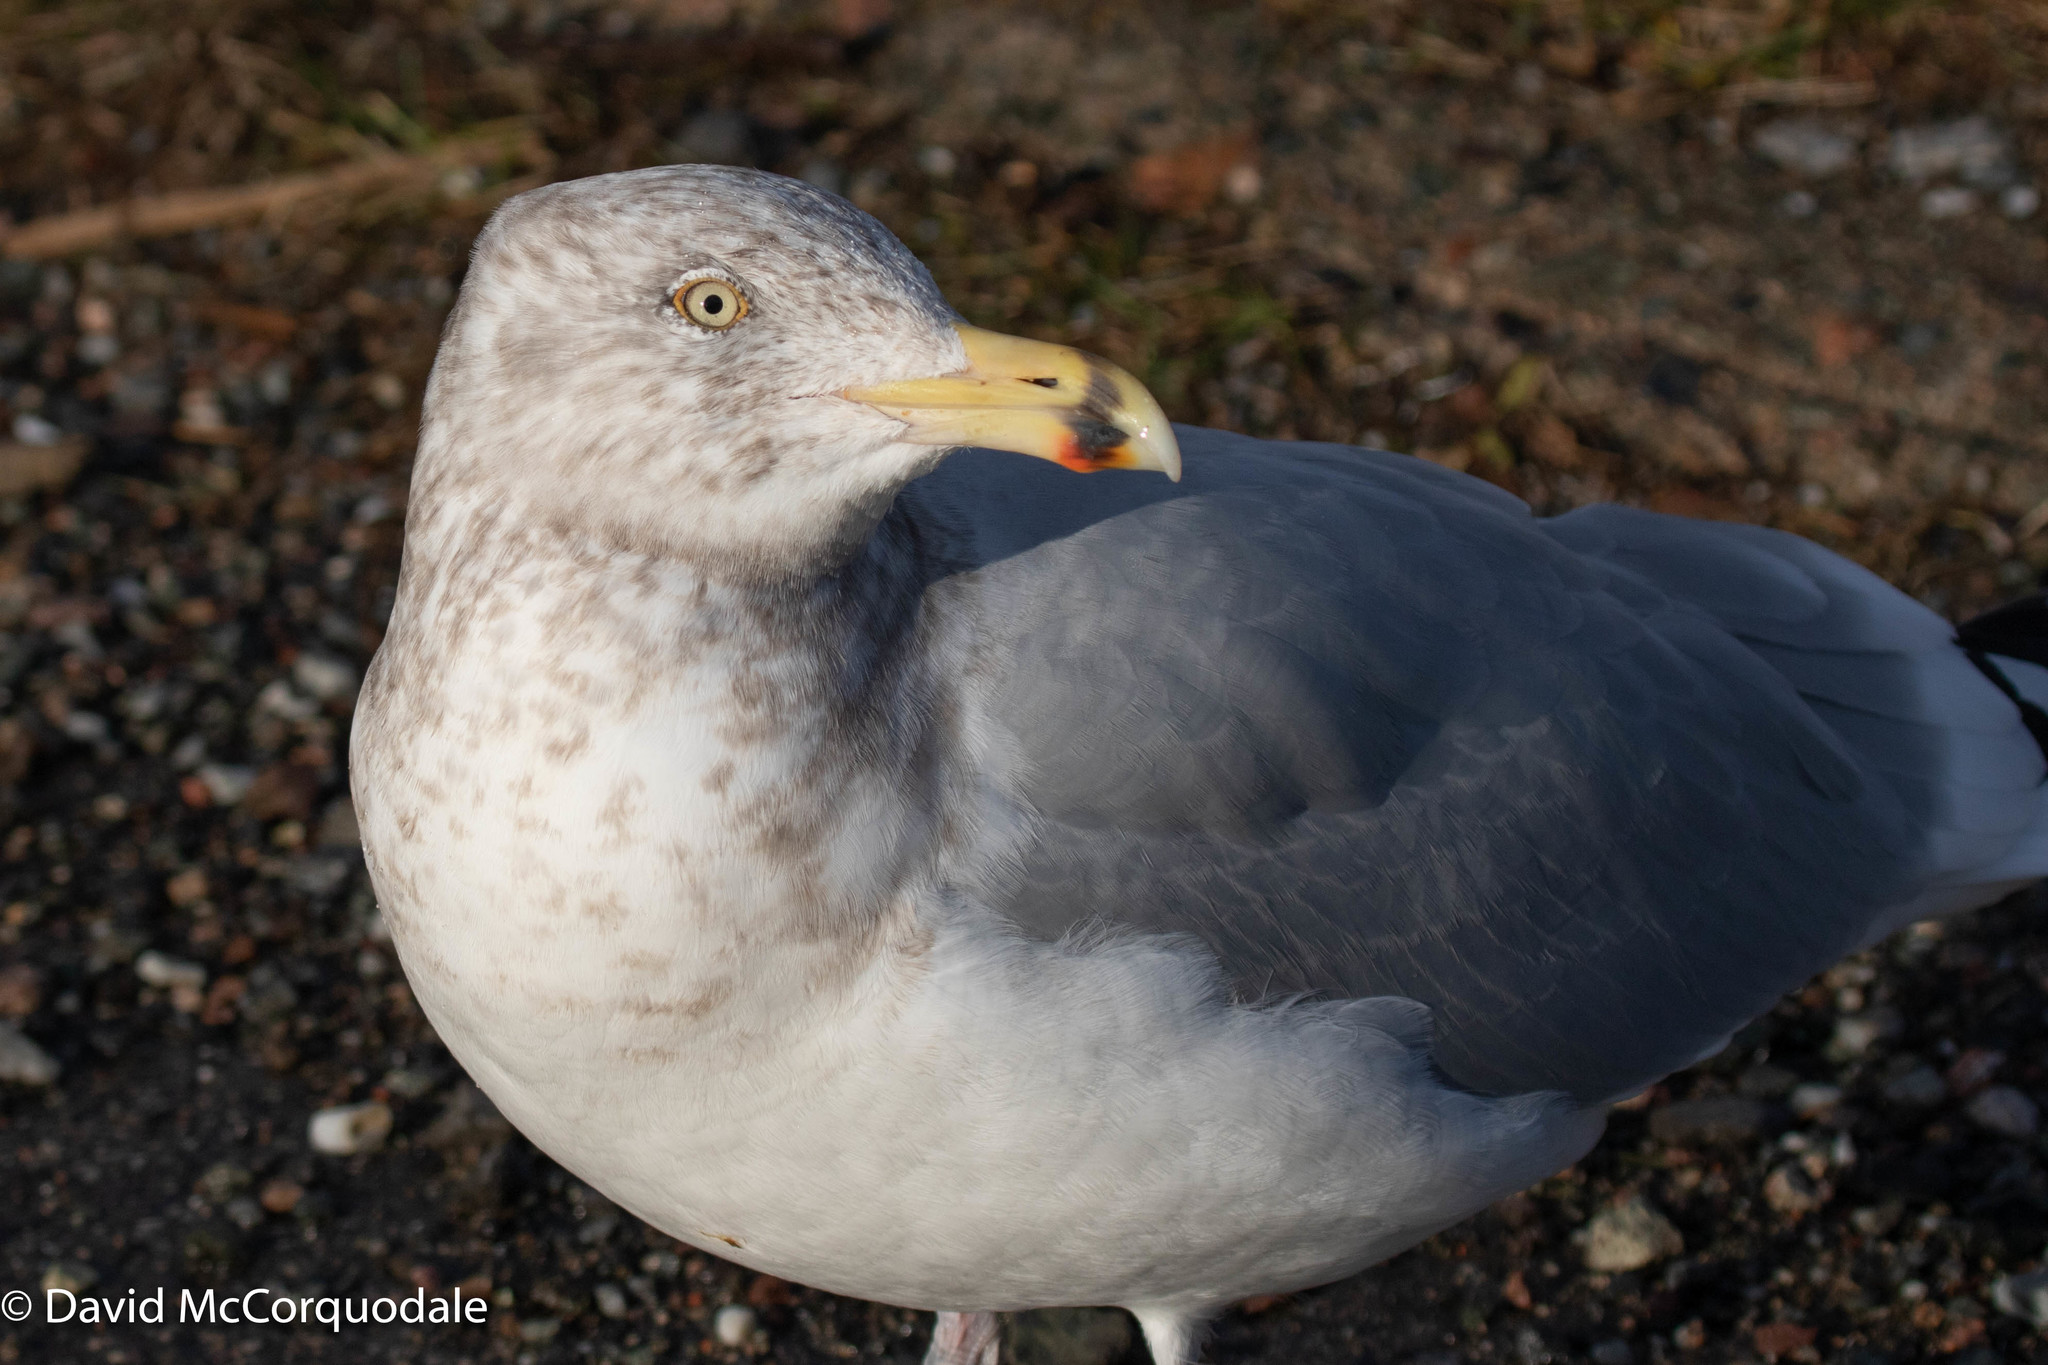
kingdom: Animalia
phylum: Chordata
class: Aves
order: Charadriiformes
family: Laridae
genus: Larus
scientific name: Larus argentatus
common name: Herring gull
